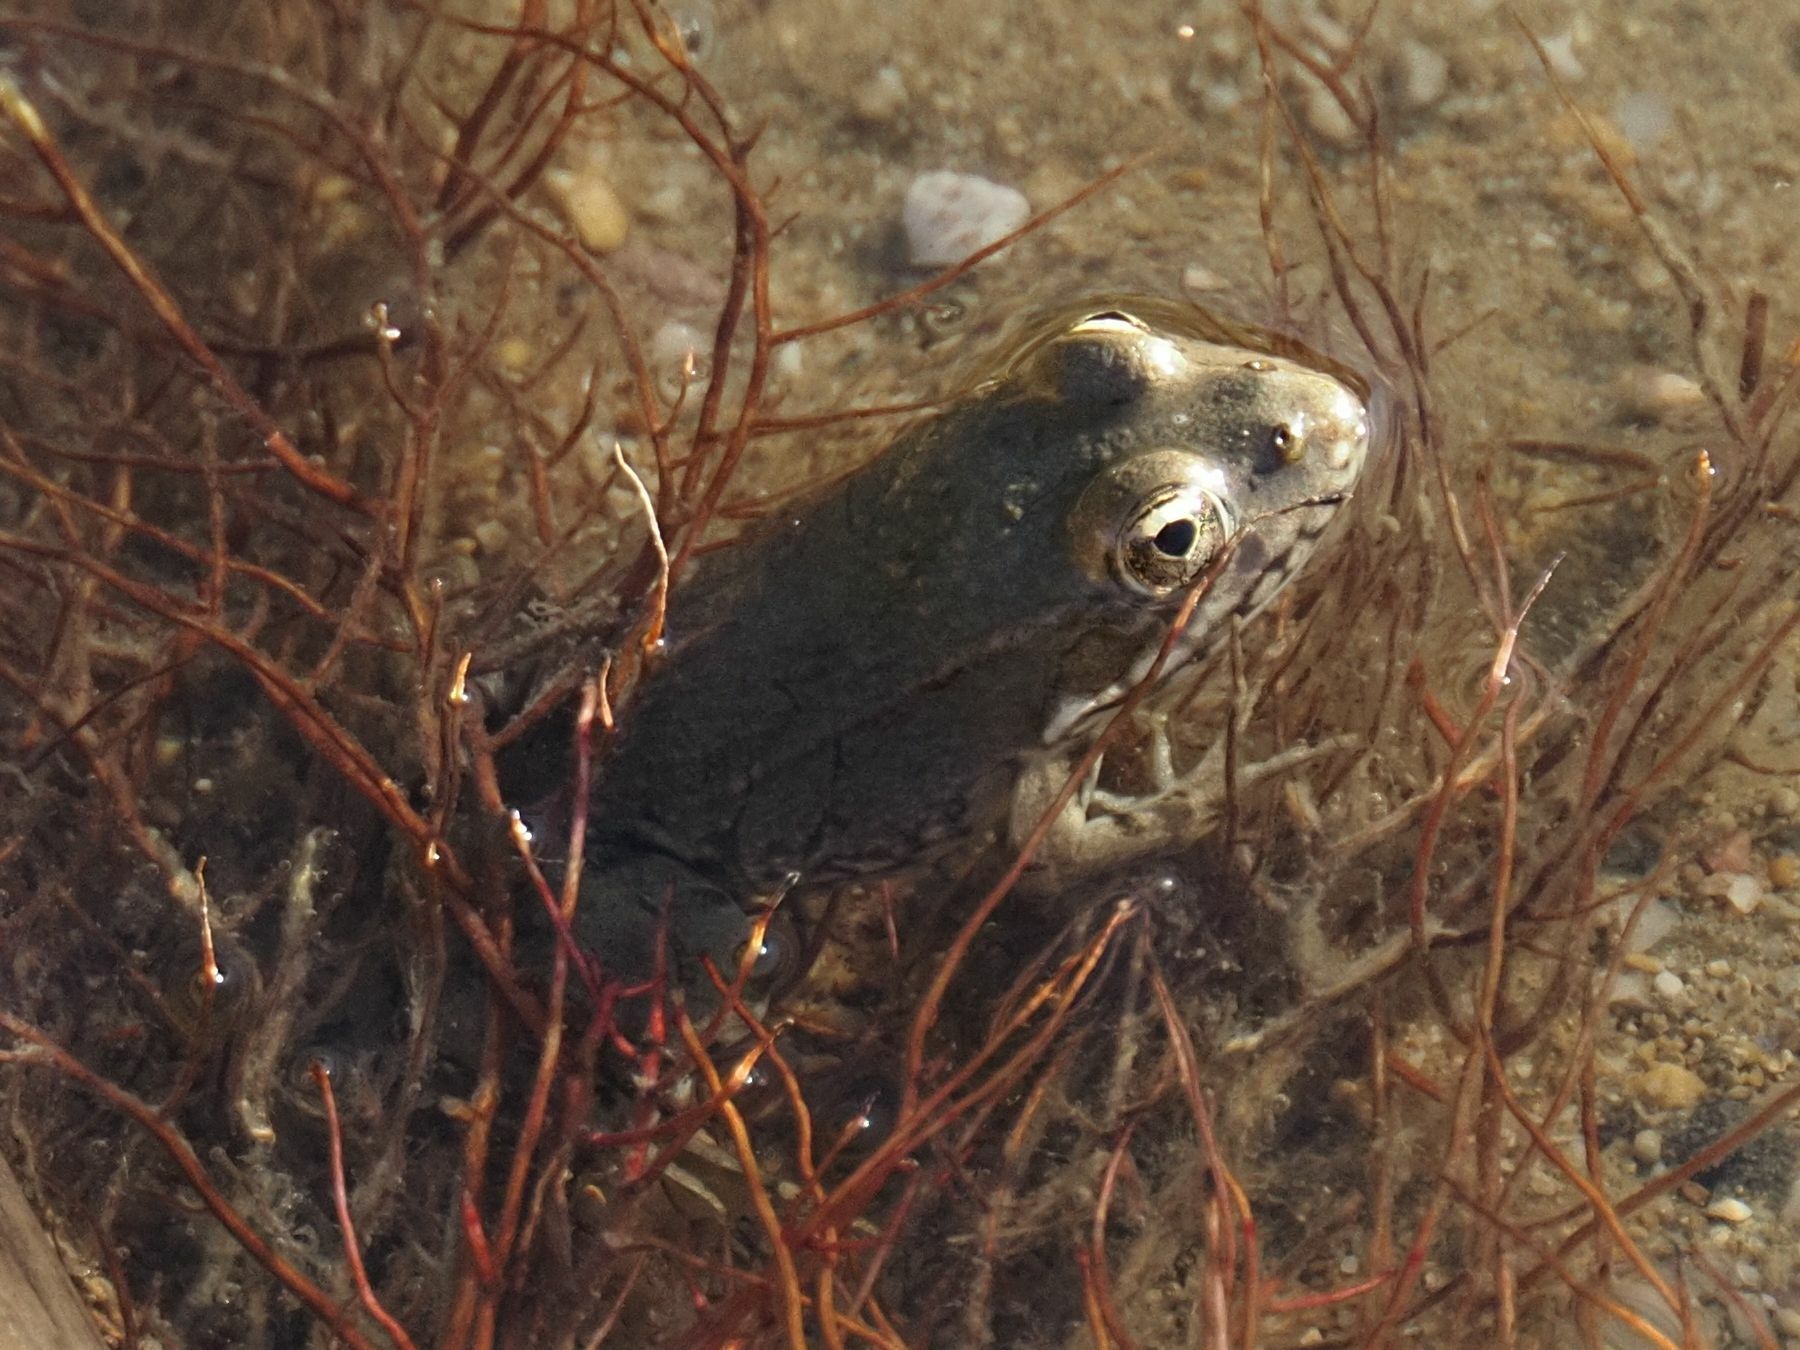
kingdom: Animalia
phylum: Chordata
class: Amphibia
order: Anura
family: Ranidae
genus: Pelophylax
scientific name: Pelophylax
